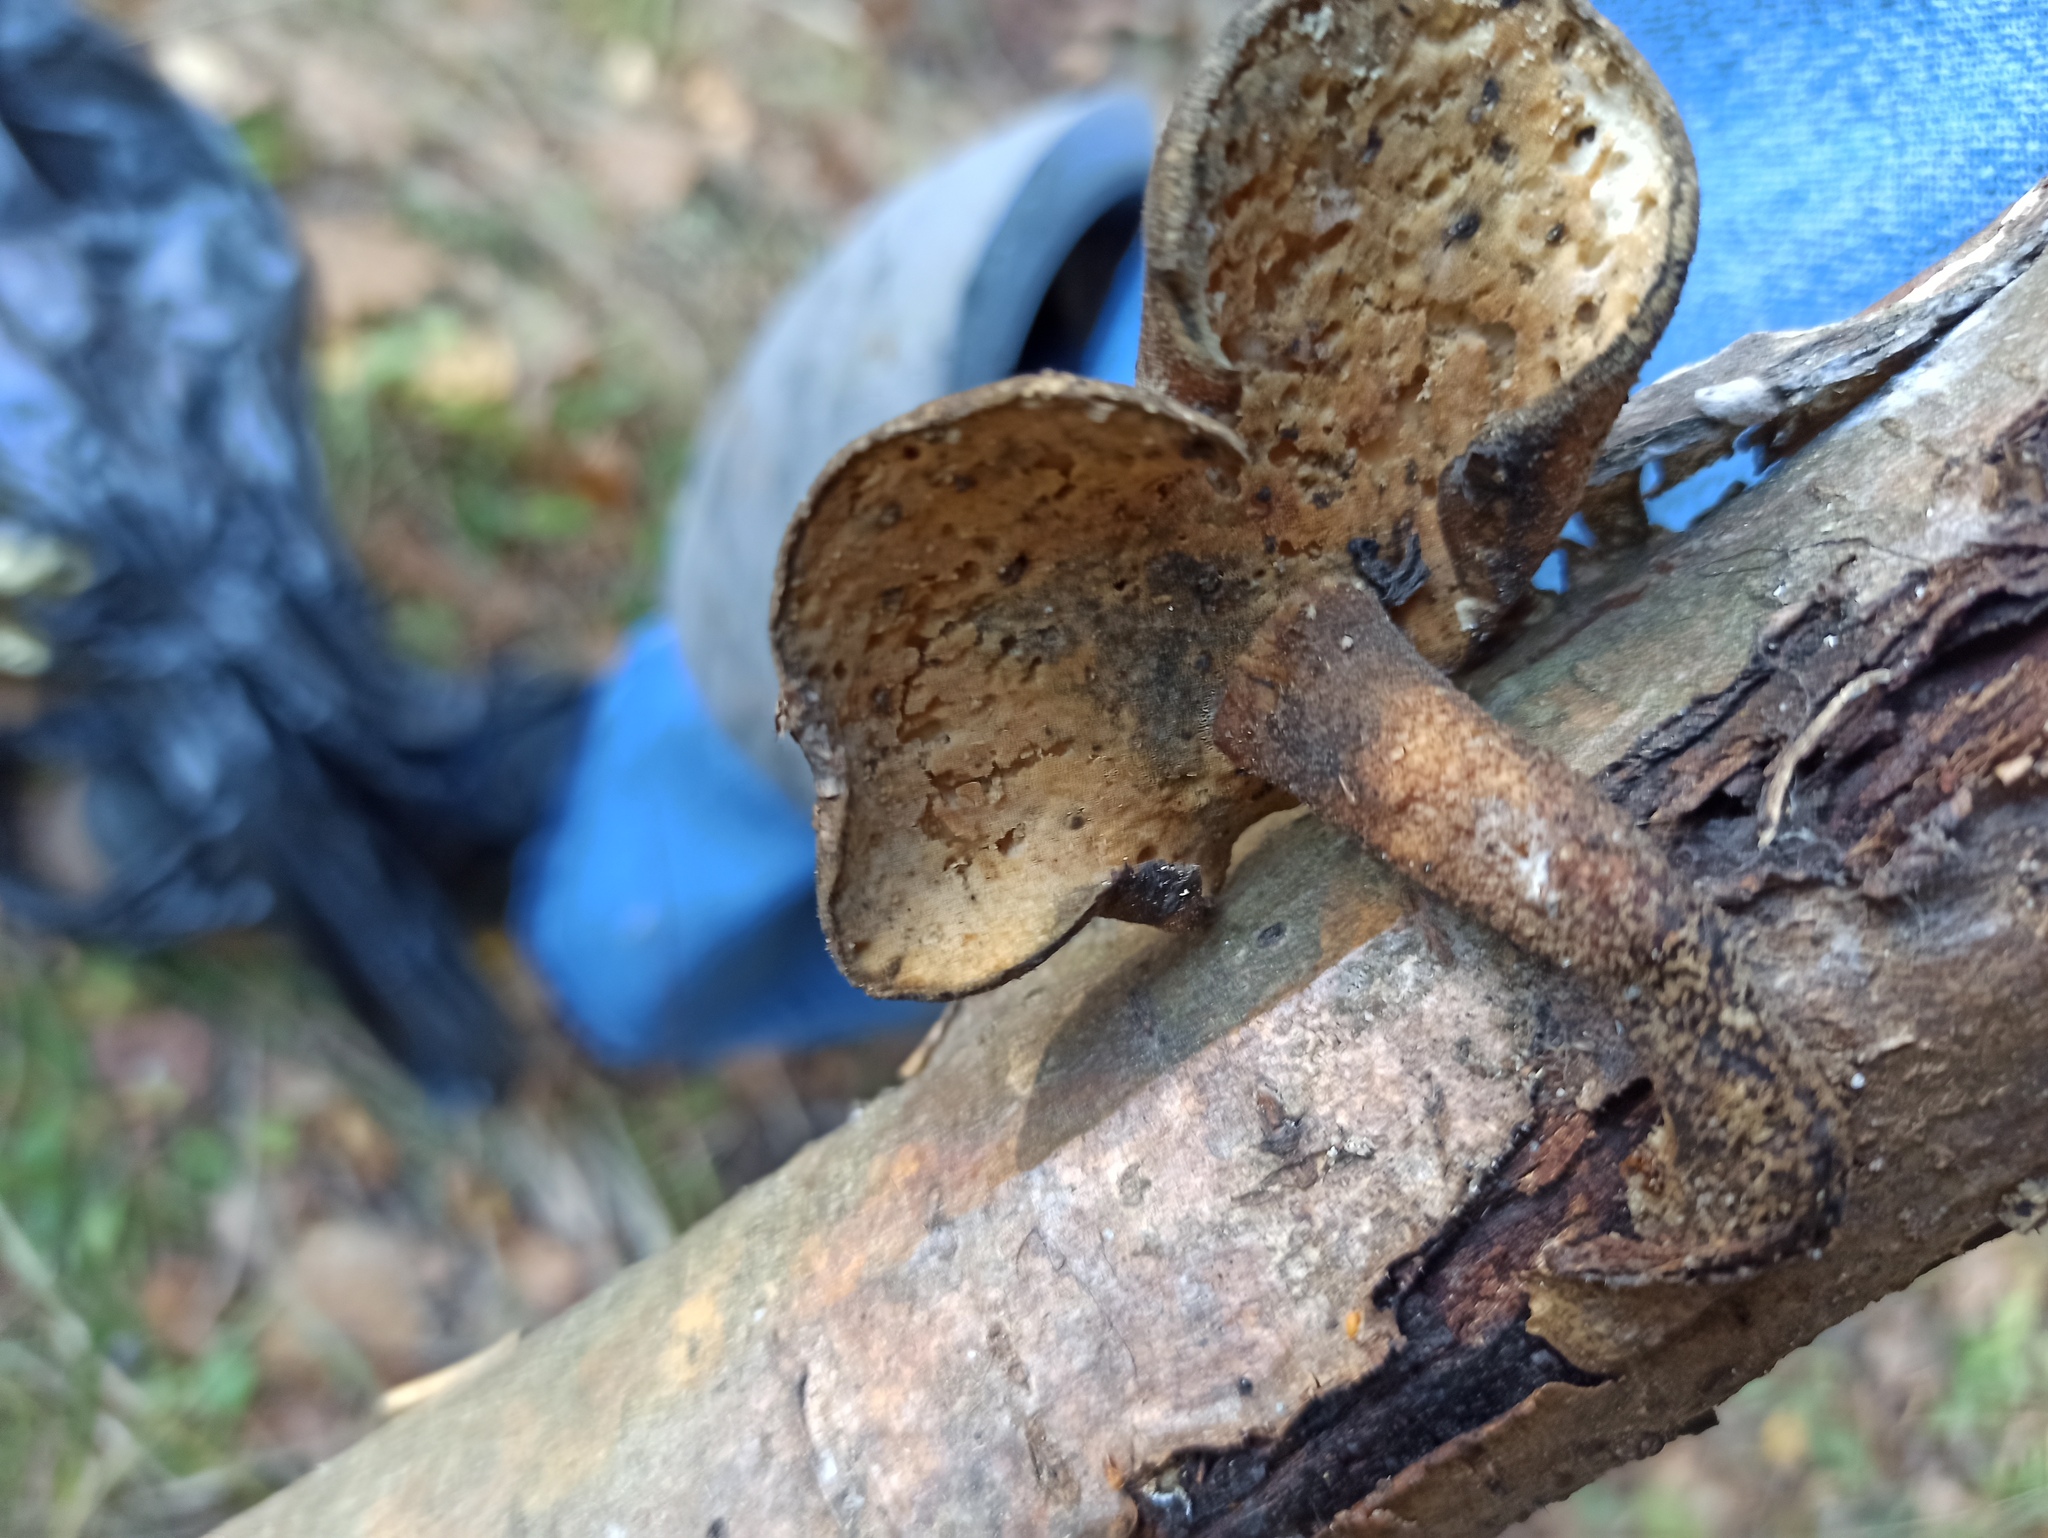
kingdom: Fungi
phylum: Basidiomycota
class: Agaricomycetes
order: Polyporales
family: Polyporaceae
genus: Lentinus
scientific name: Lentinus substrictus
